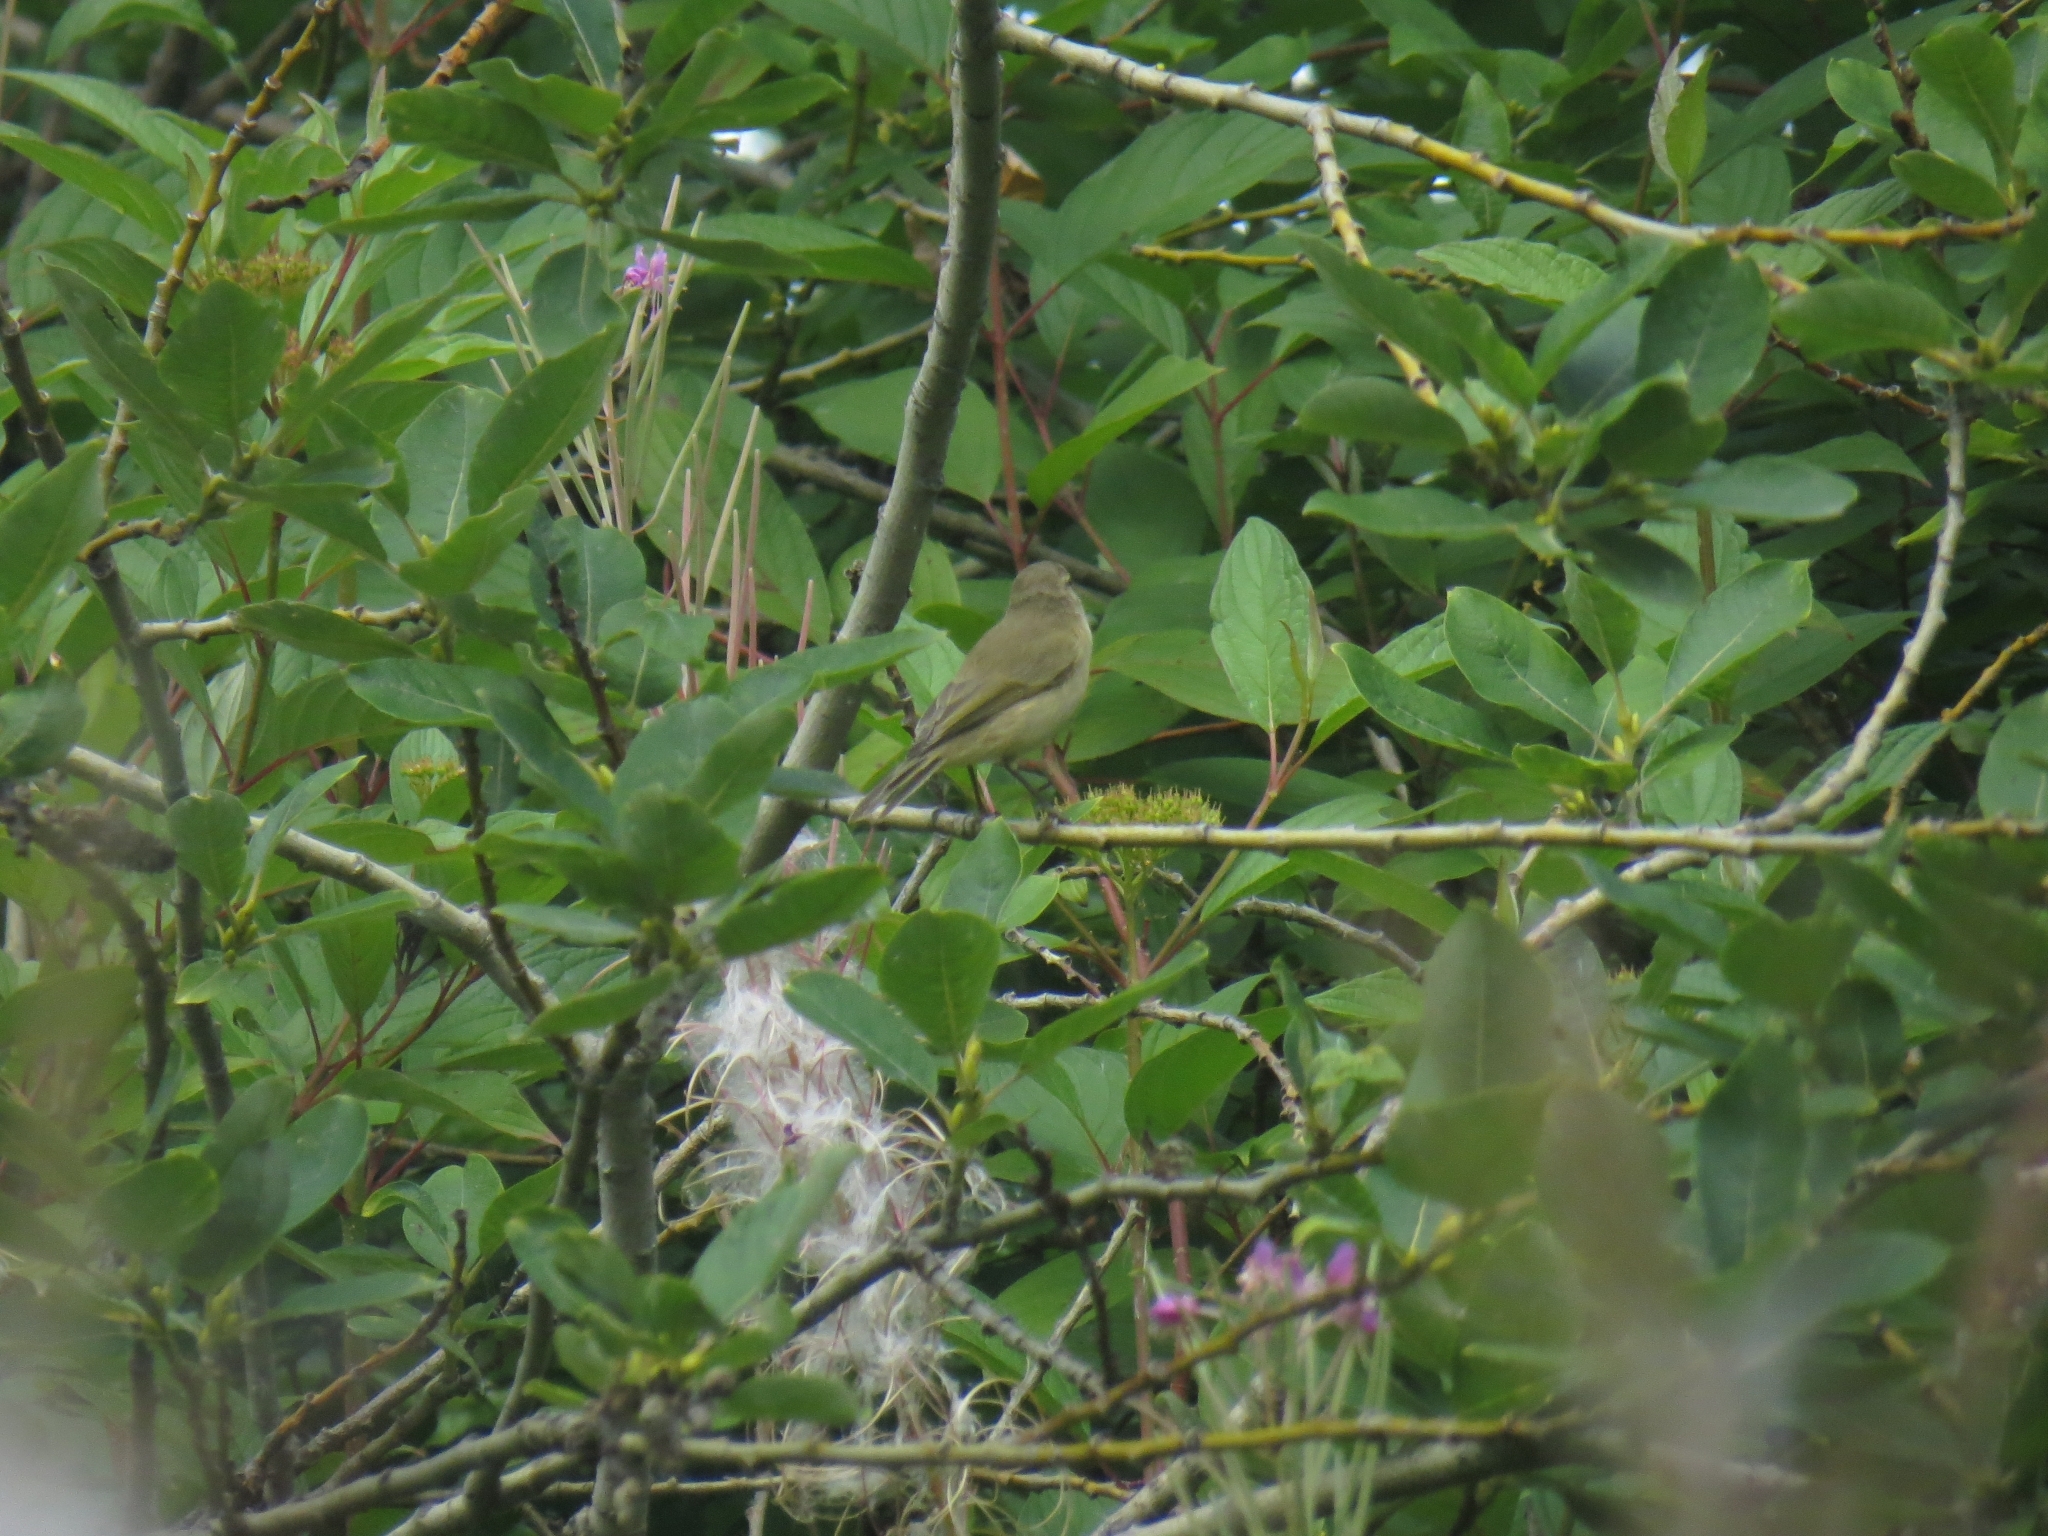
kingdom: Animalia
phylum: Chordata
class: Aves
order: Passeriformes
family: Phylloscopidae
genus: Phylloscopus
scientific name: Phylloscopus collybita
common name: Common chiffchaff
